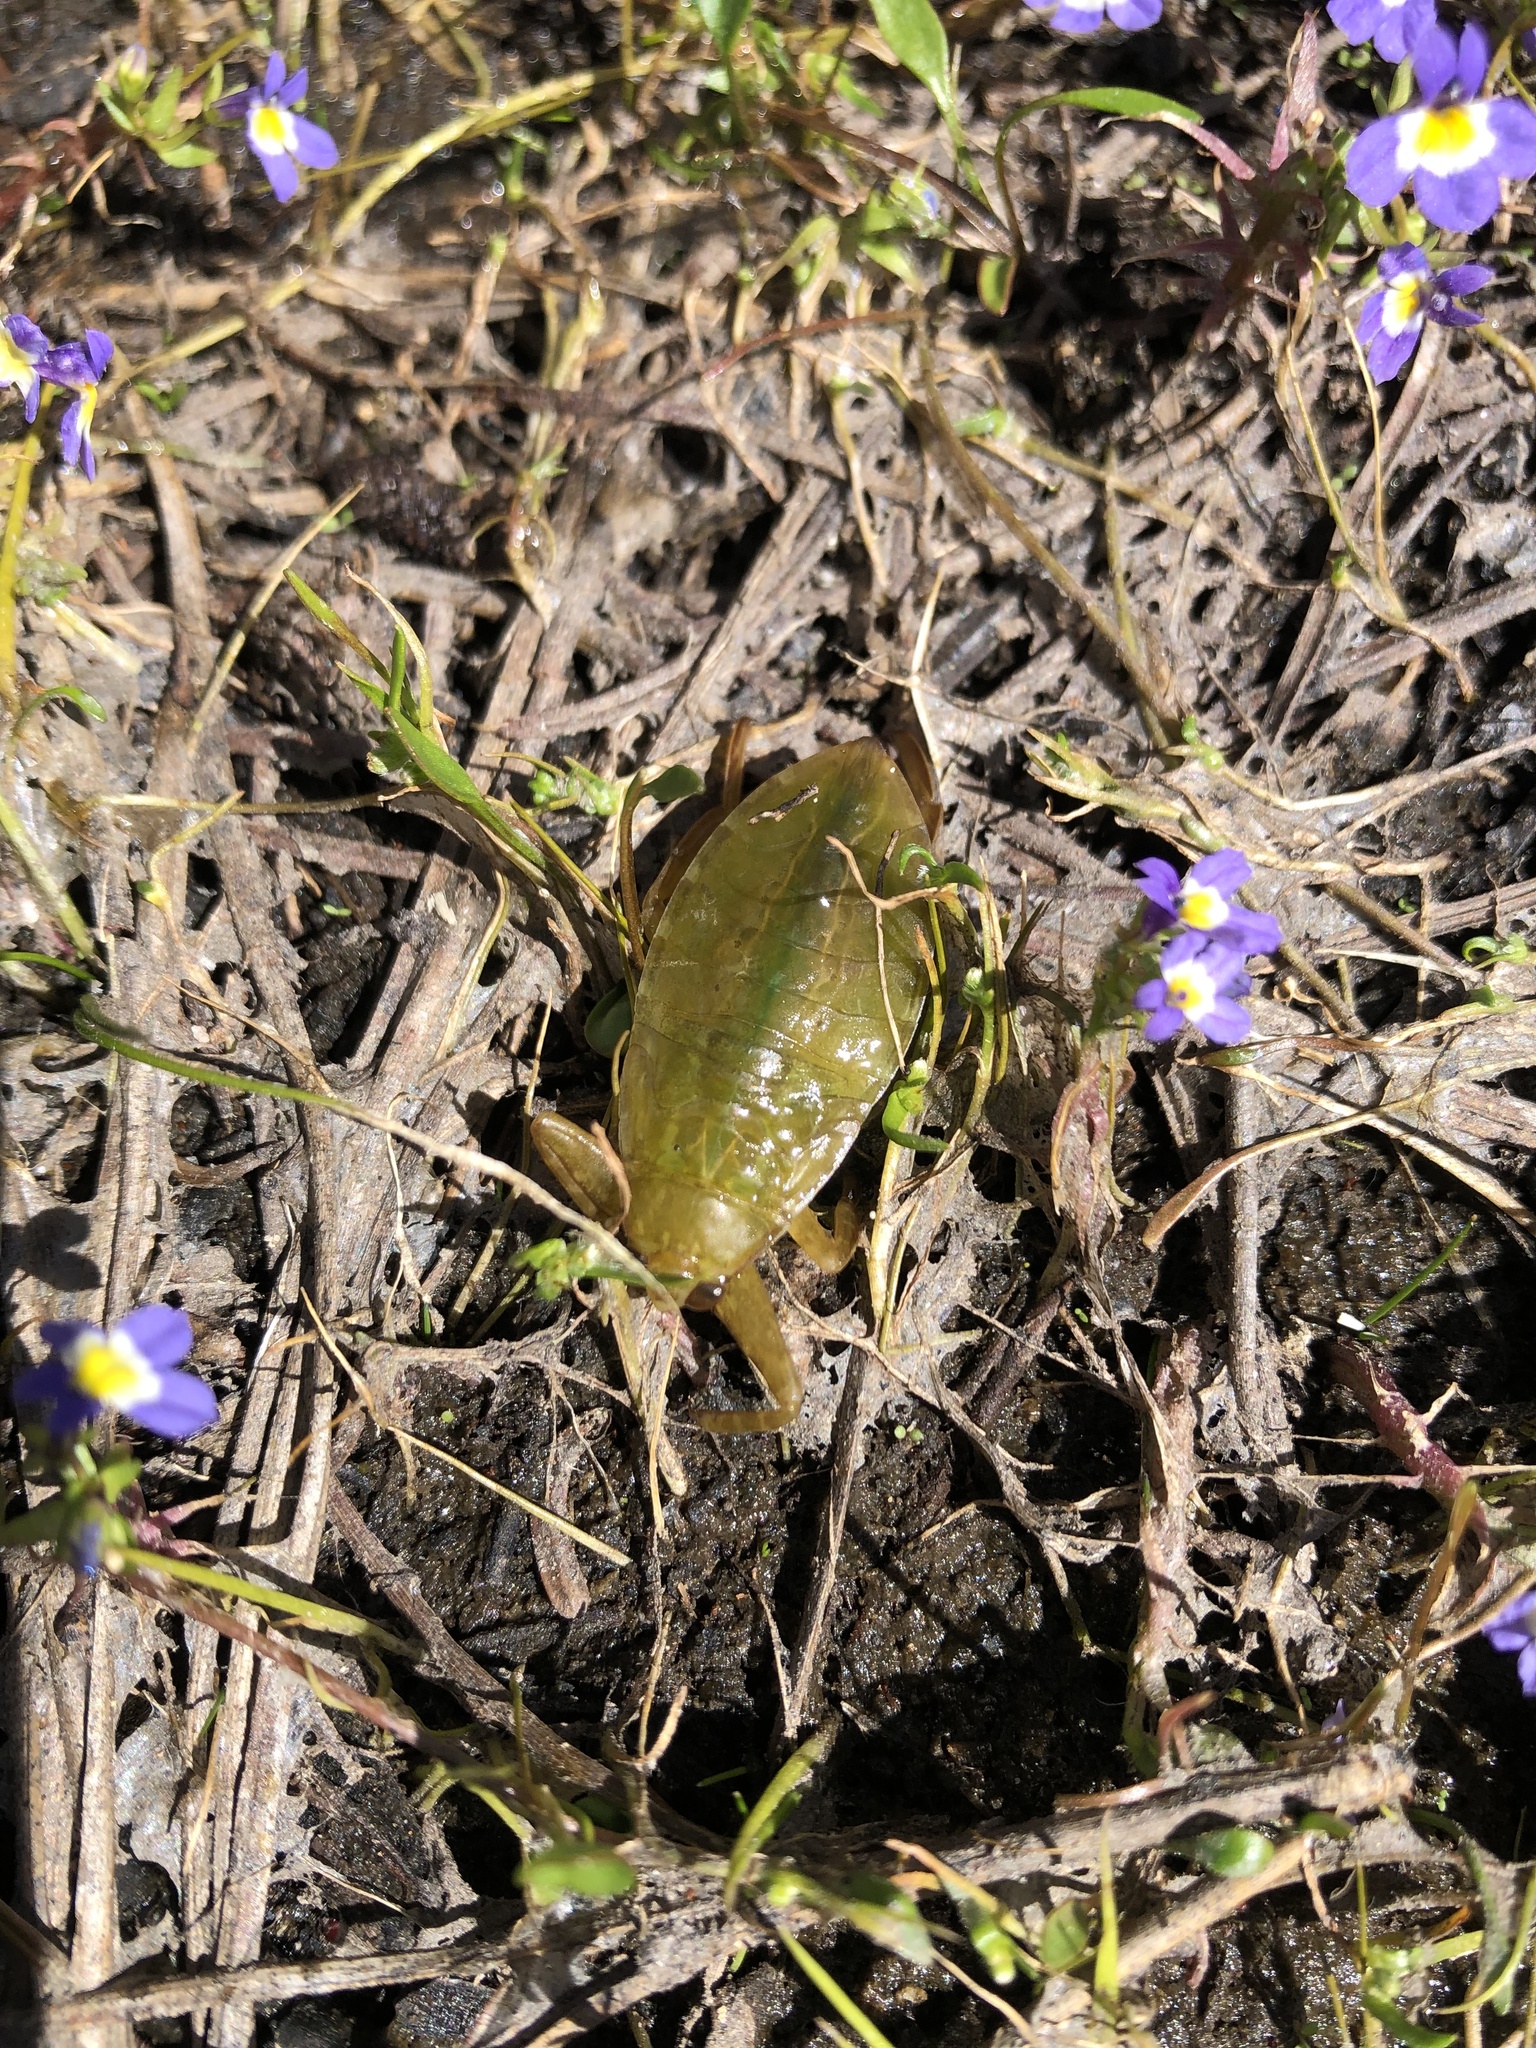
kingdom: Animalia
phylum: Arthropoda
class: Insecta
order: Hemiptera
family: Belostomatidae
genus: Lethocerus
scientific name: Lethocerus americanus
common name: Giant water bug
